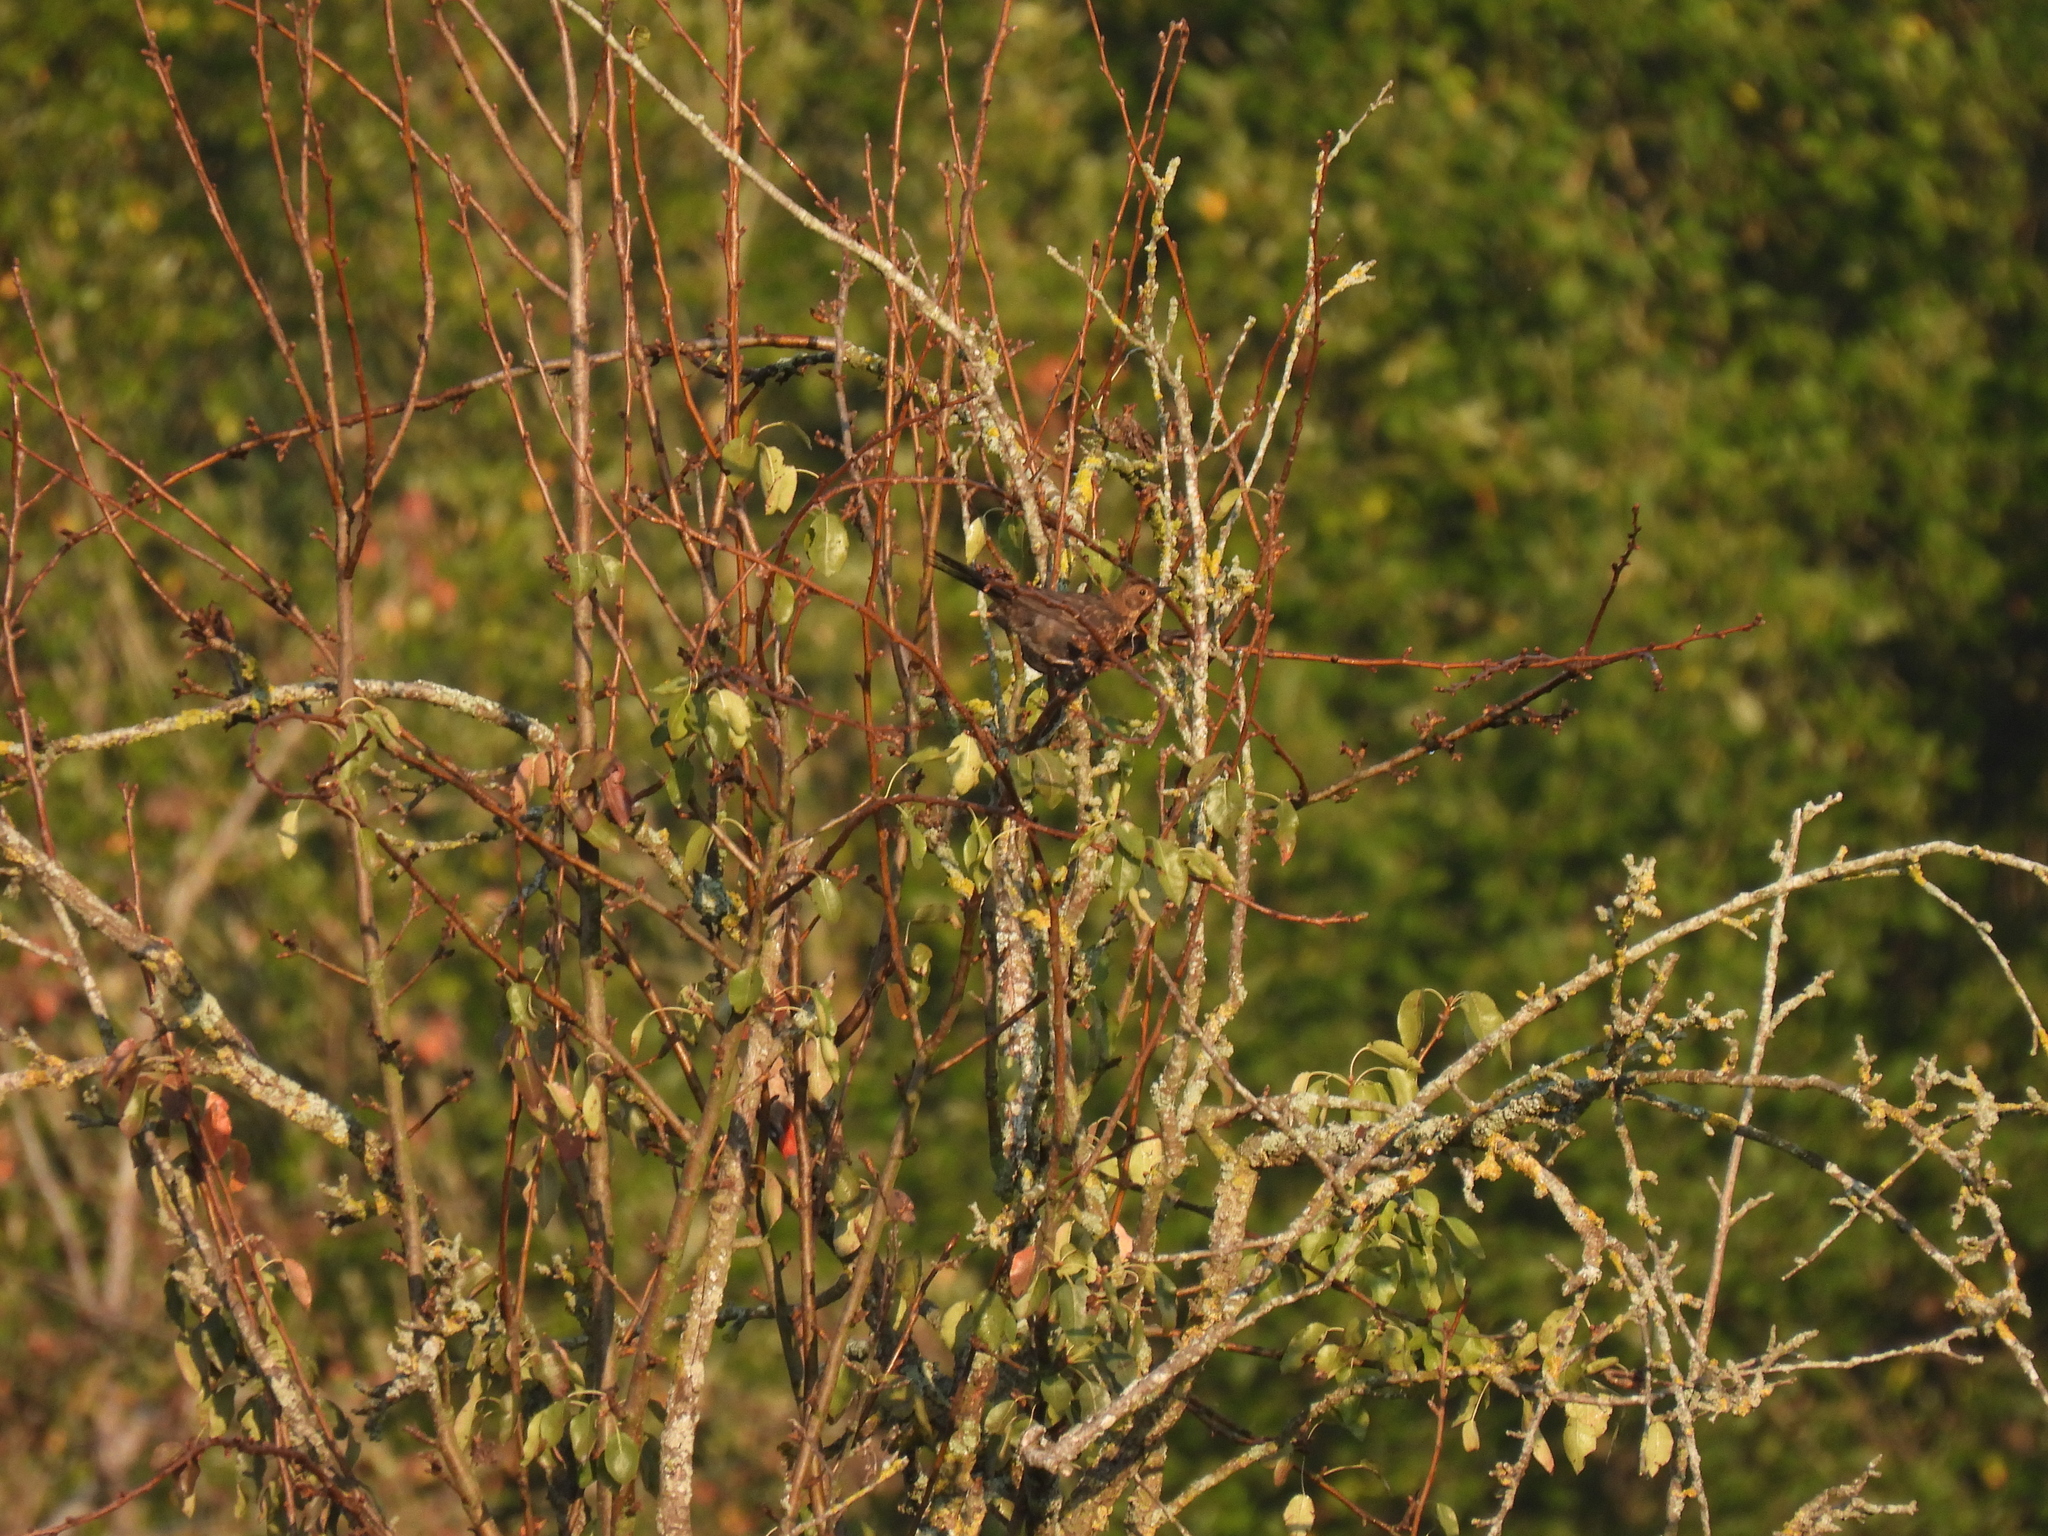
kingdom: Animalia
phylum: Chordata
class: Aves
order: Passeriformes
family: Turdidae
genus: Turdus
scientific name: Turdus merula
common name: Common blackbird
